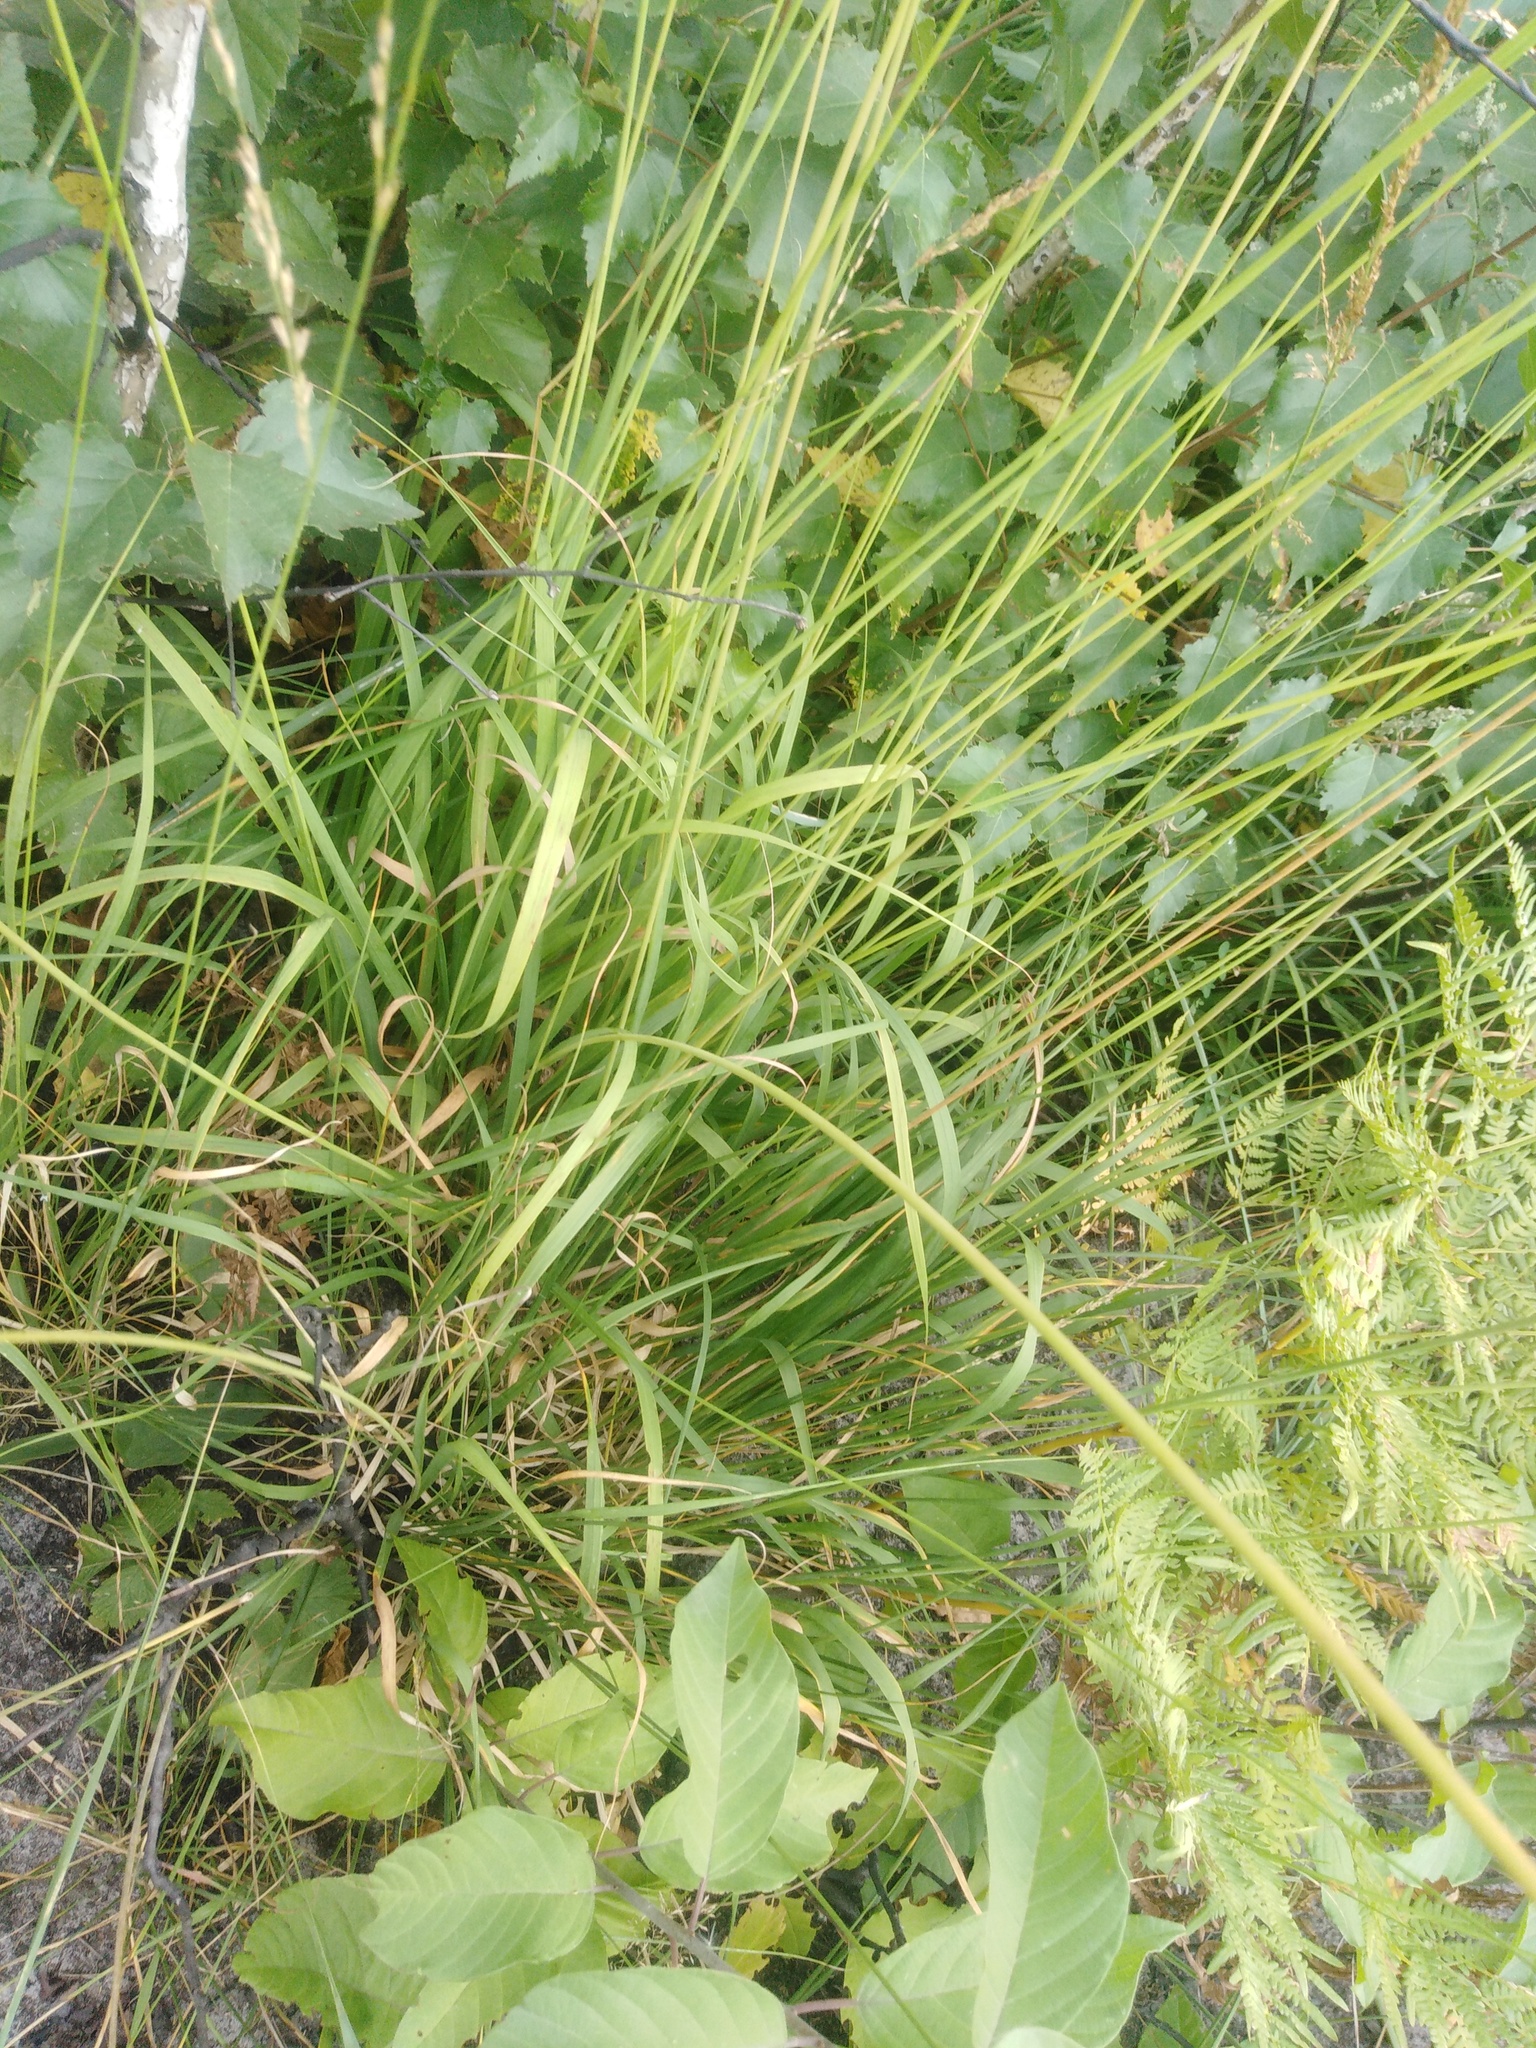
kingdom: Plantae
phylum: Tracheophyta
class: Liliopsida
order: Poales
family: Poaceae
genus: Molinia
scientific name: Molinia caerulea
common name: Purple moor-grass
